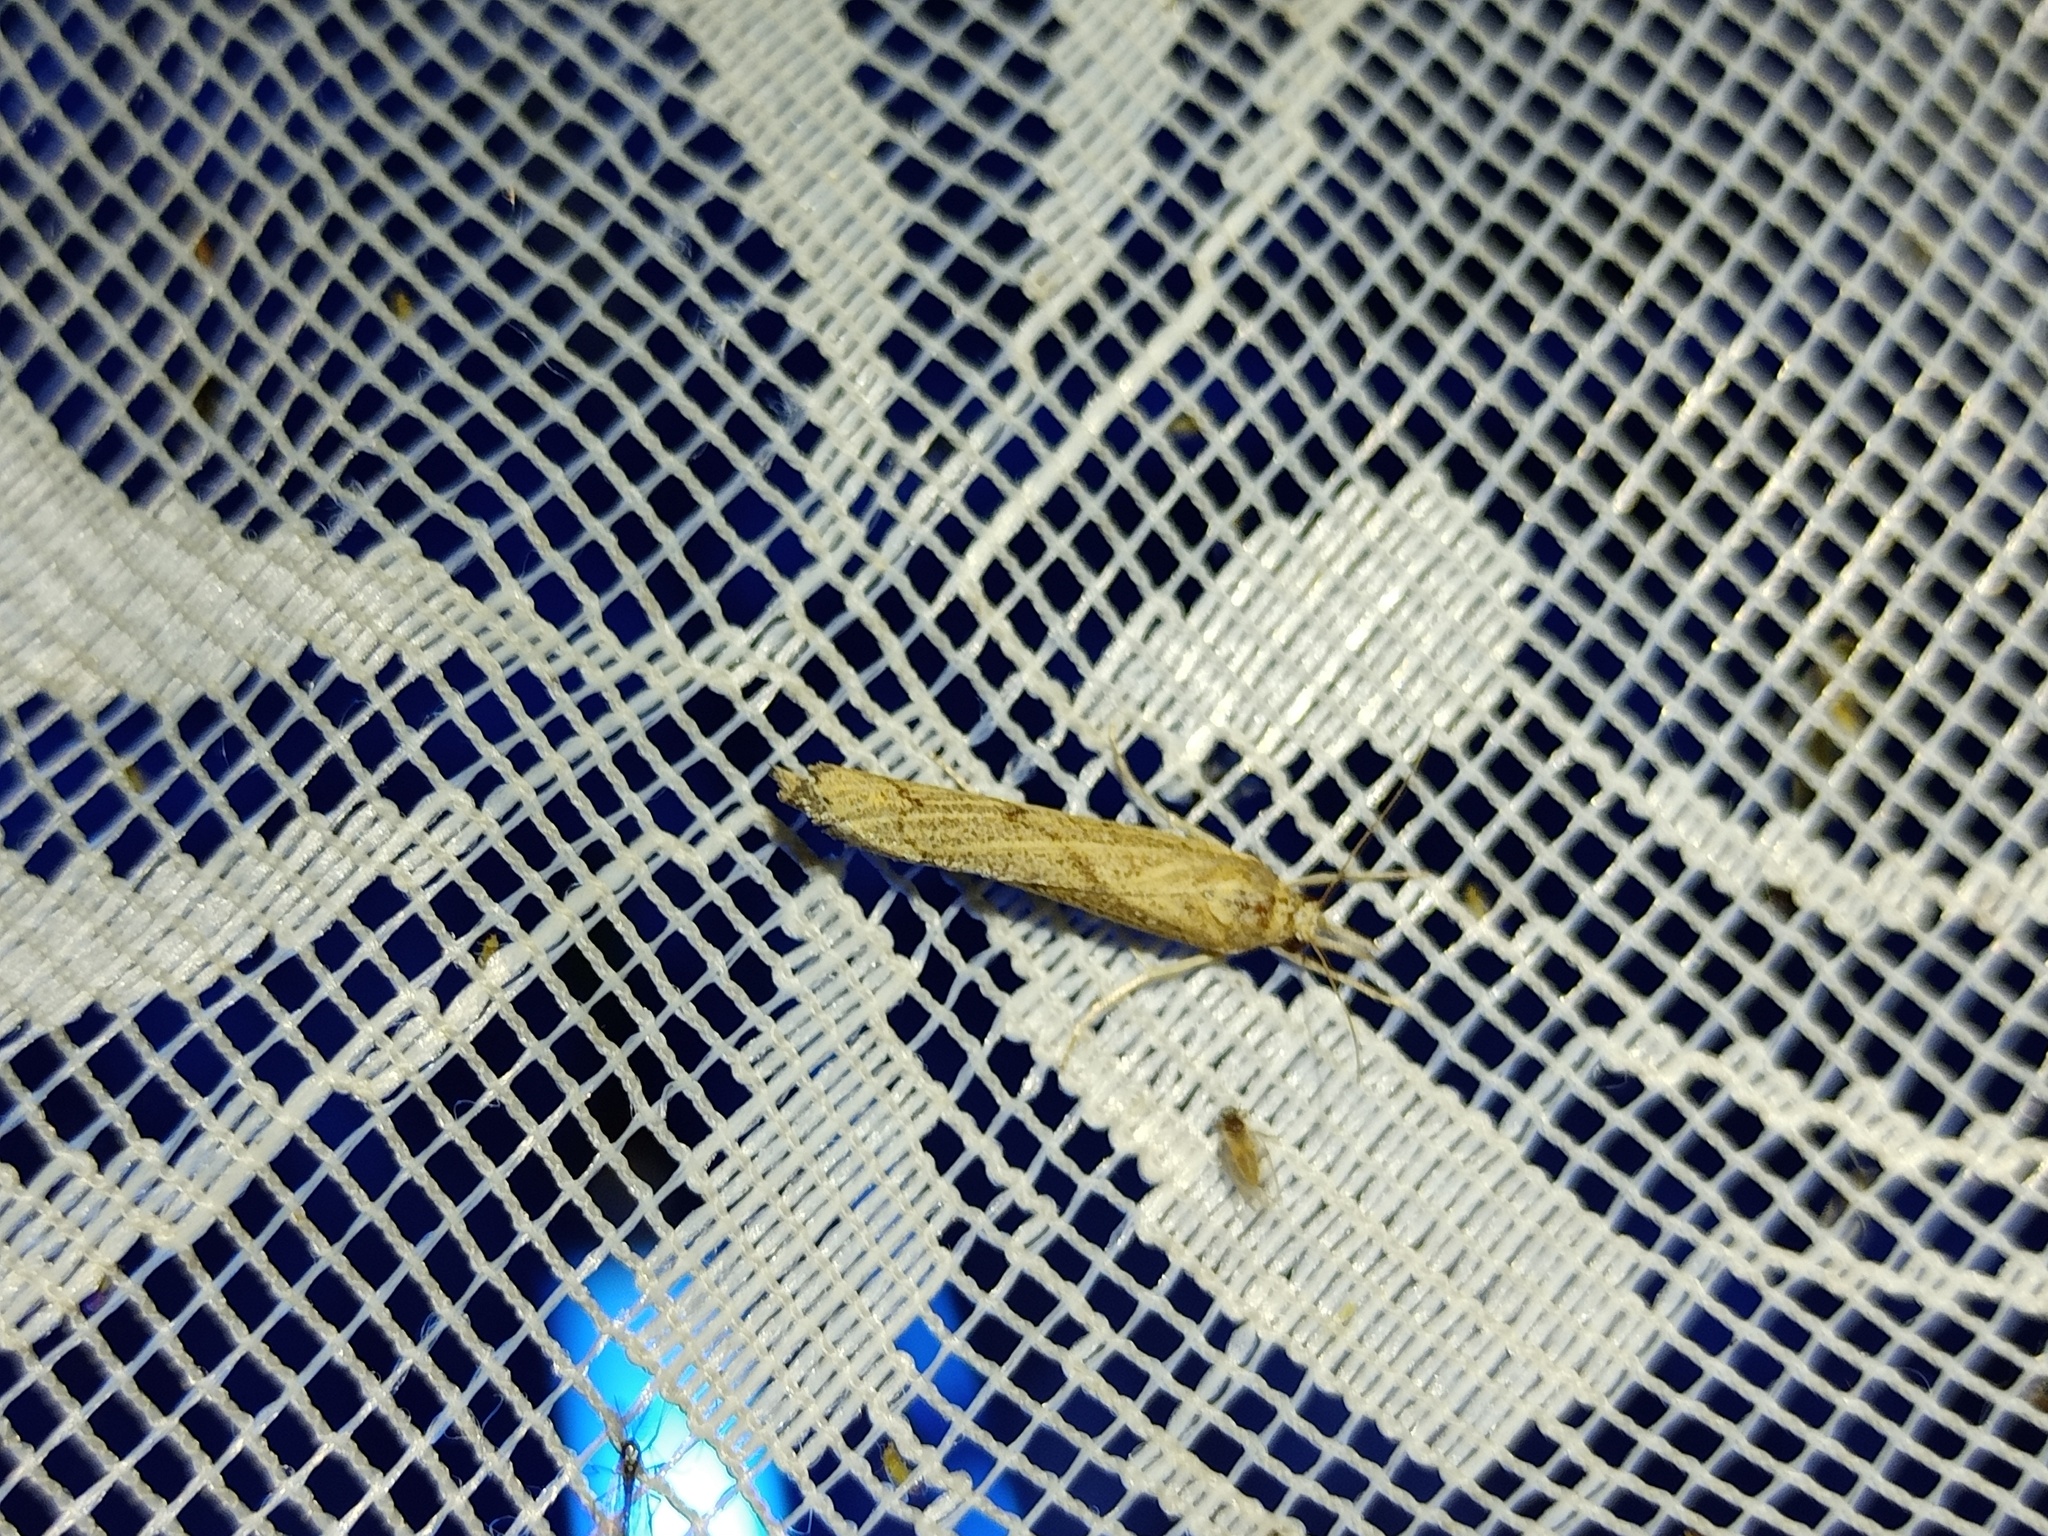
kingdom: Animalia
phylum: Arthropoda
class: Insecta
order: Lepidoptera
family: Crambidae
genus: Pediasia
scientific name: Pediasia contaminella
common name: Waste grass-veneer
